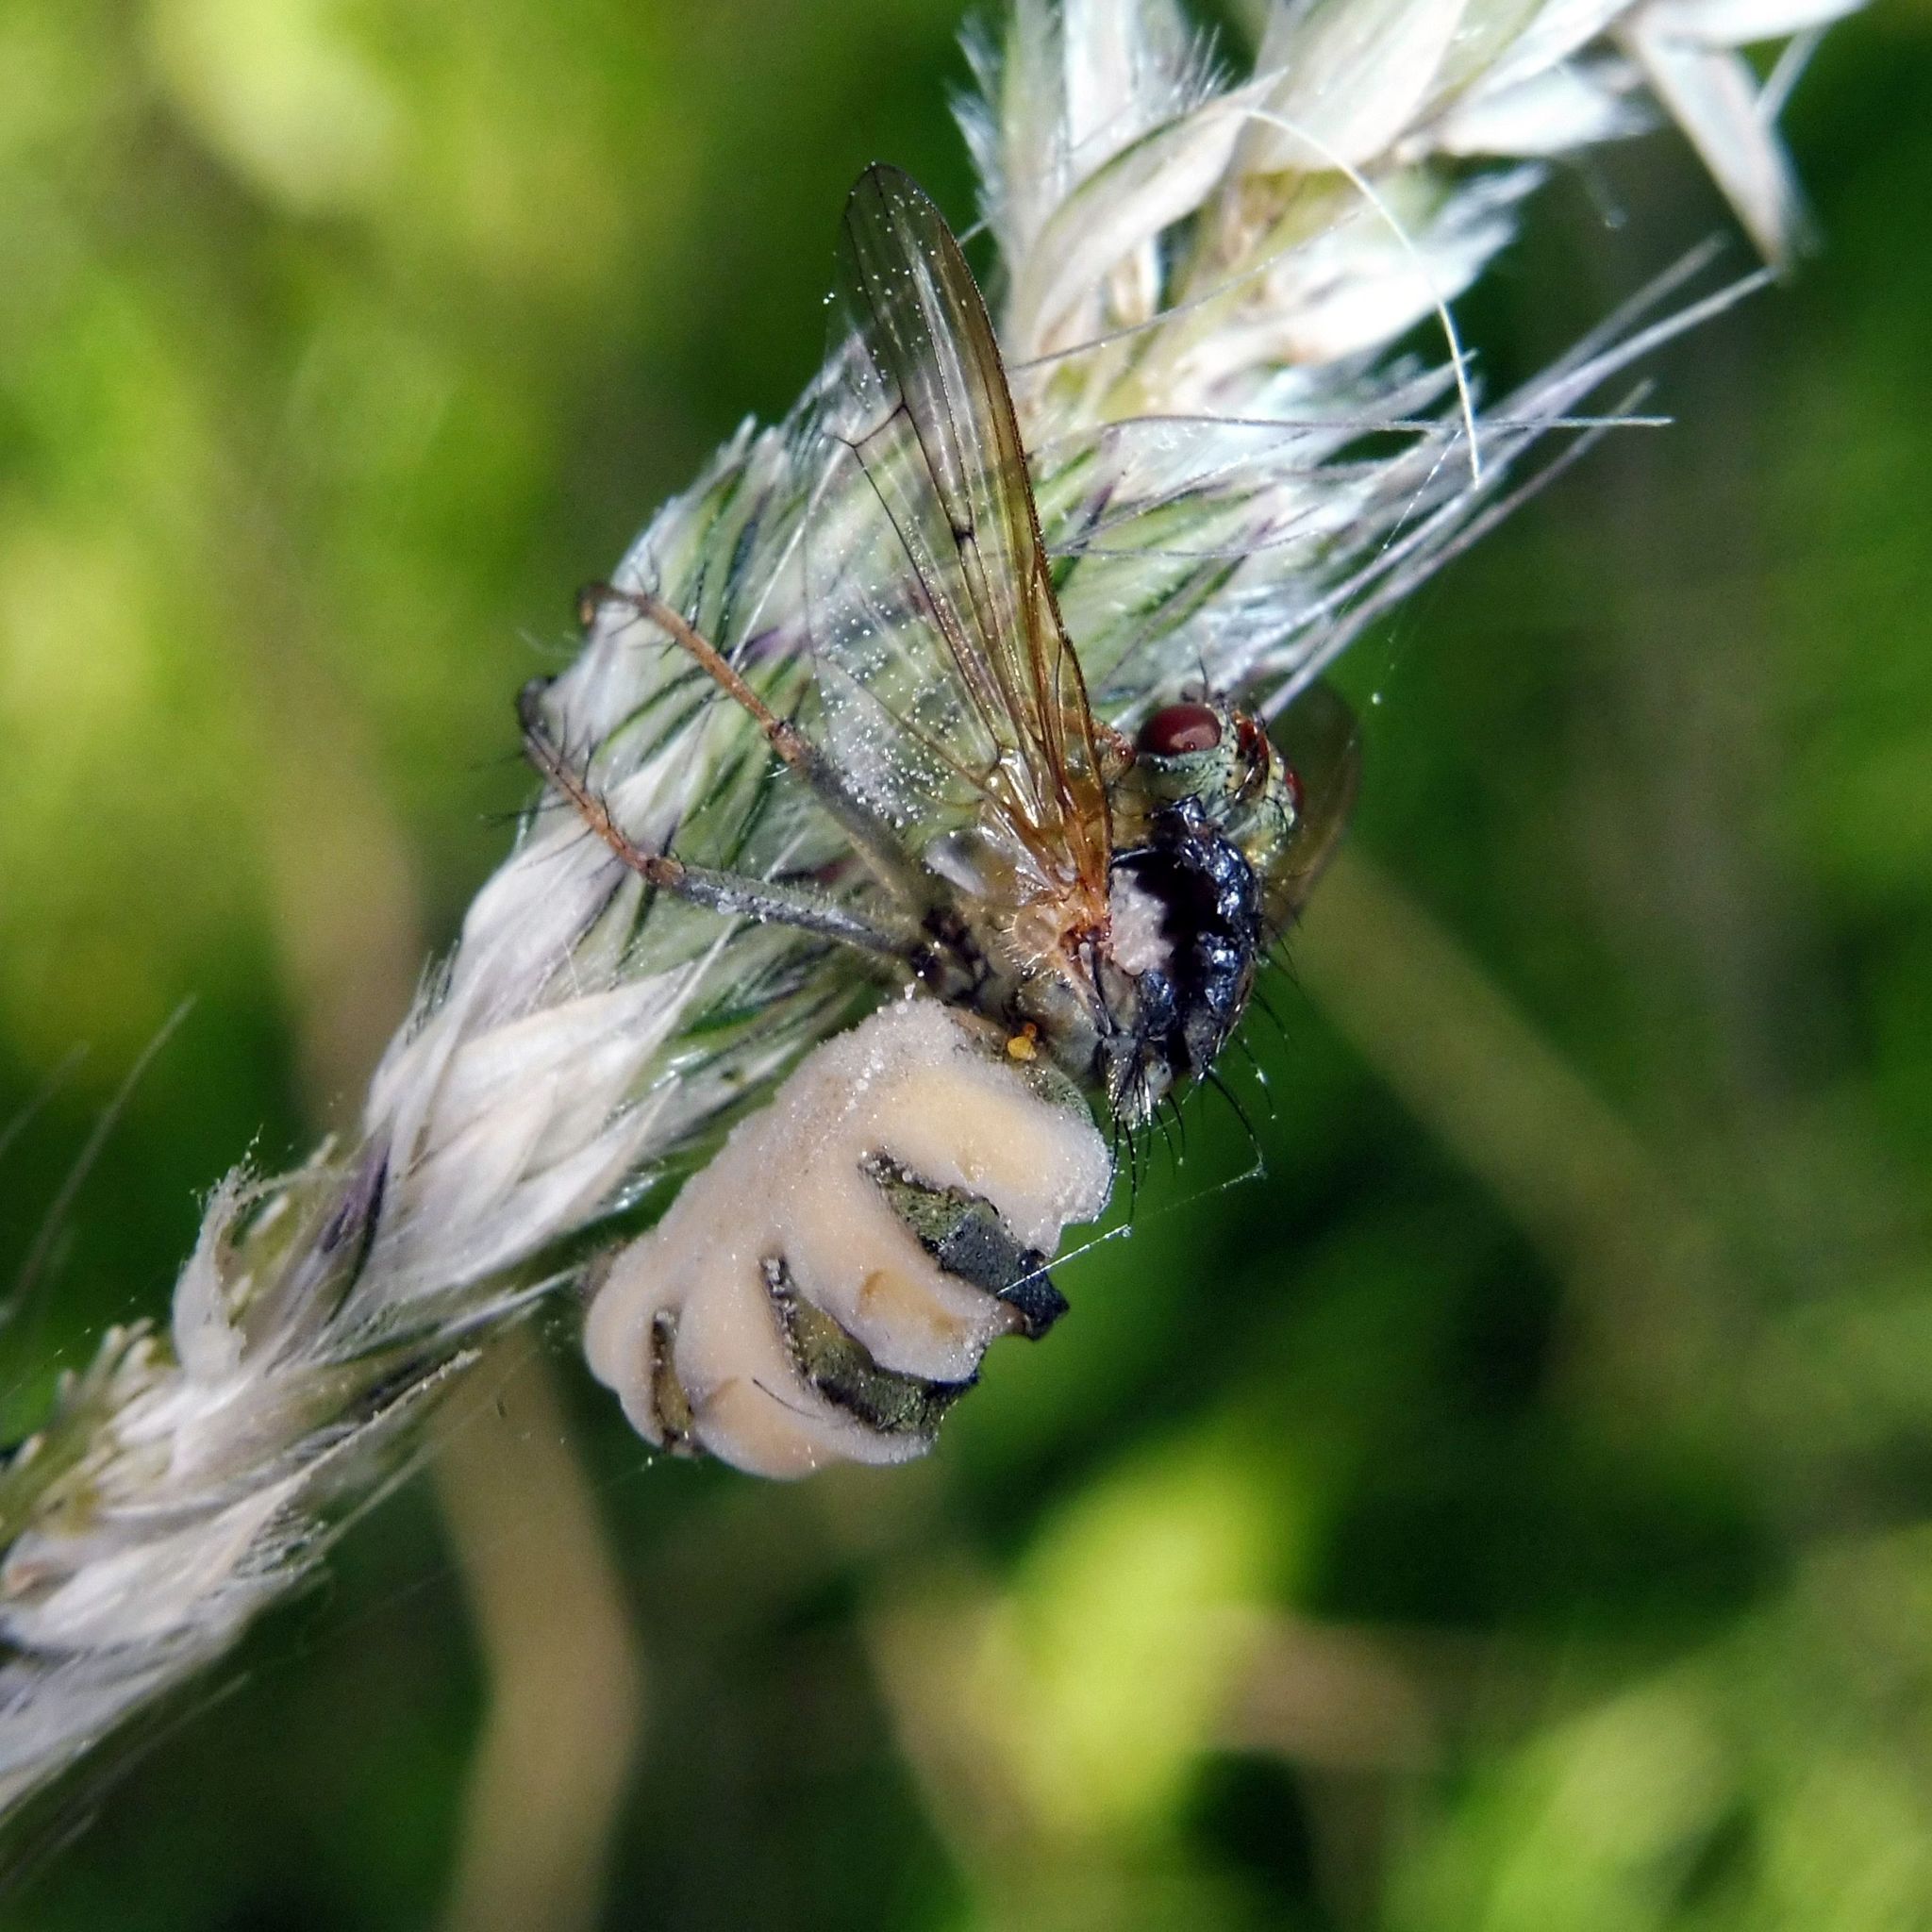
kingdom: Fungi
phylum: Entomophthoromycota
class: Entomophthoromycetes
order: Entomophthorales
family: Entomophthoraceae
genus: Entomophthora
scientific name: Entomophthora
